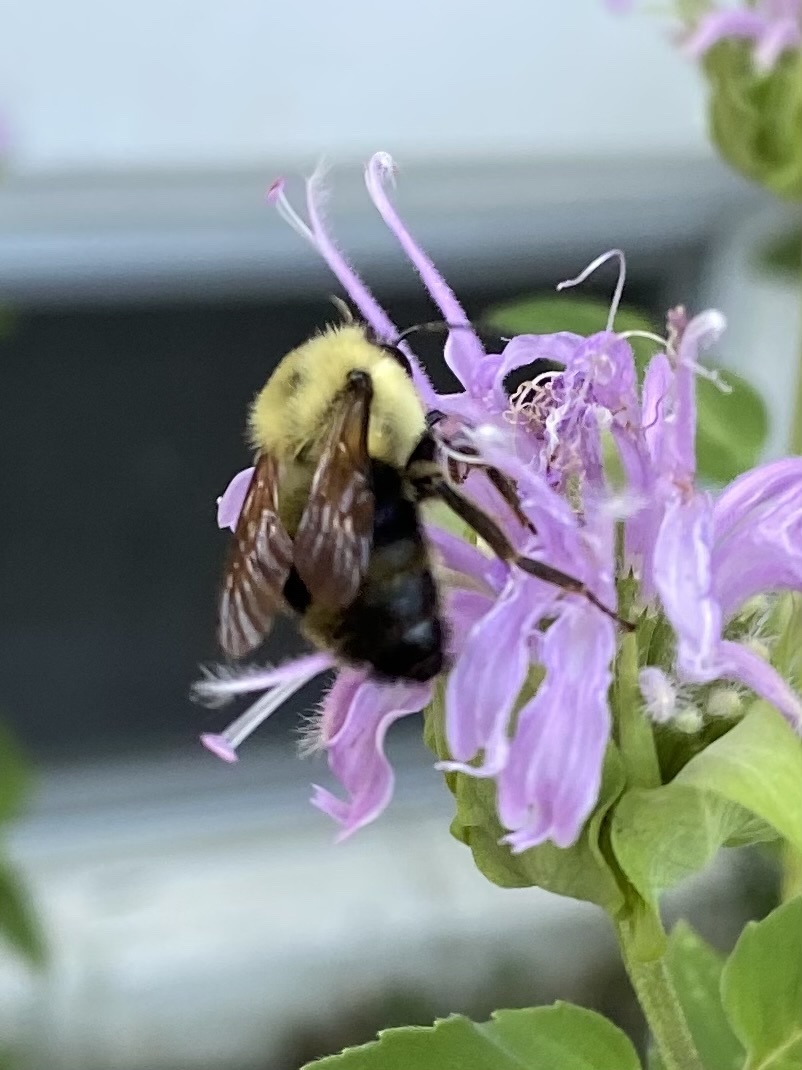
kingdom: Animalia
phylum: Arthropoda
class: Insecta
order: Hymenoptera
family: Apidae
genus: Bombus
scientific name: Bombus bimaculatus
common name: Two-spotted bumble bee
